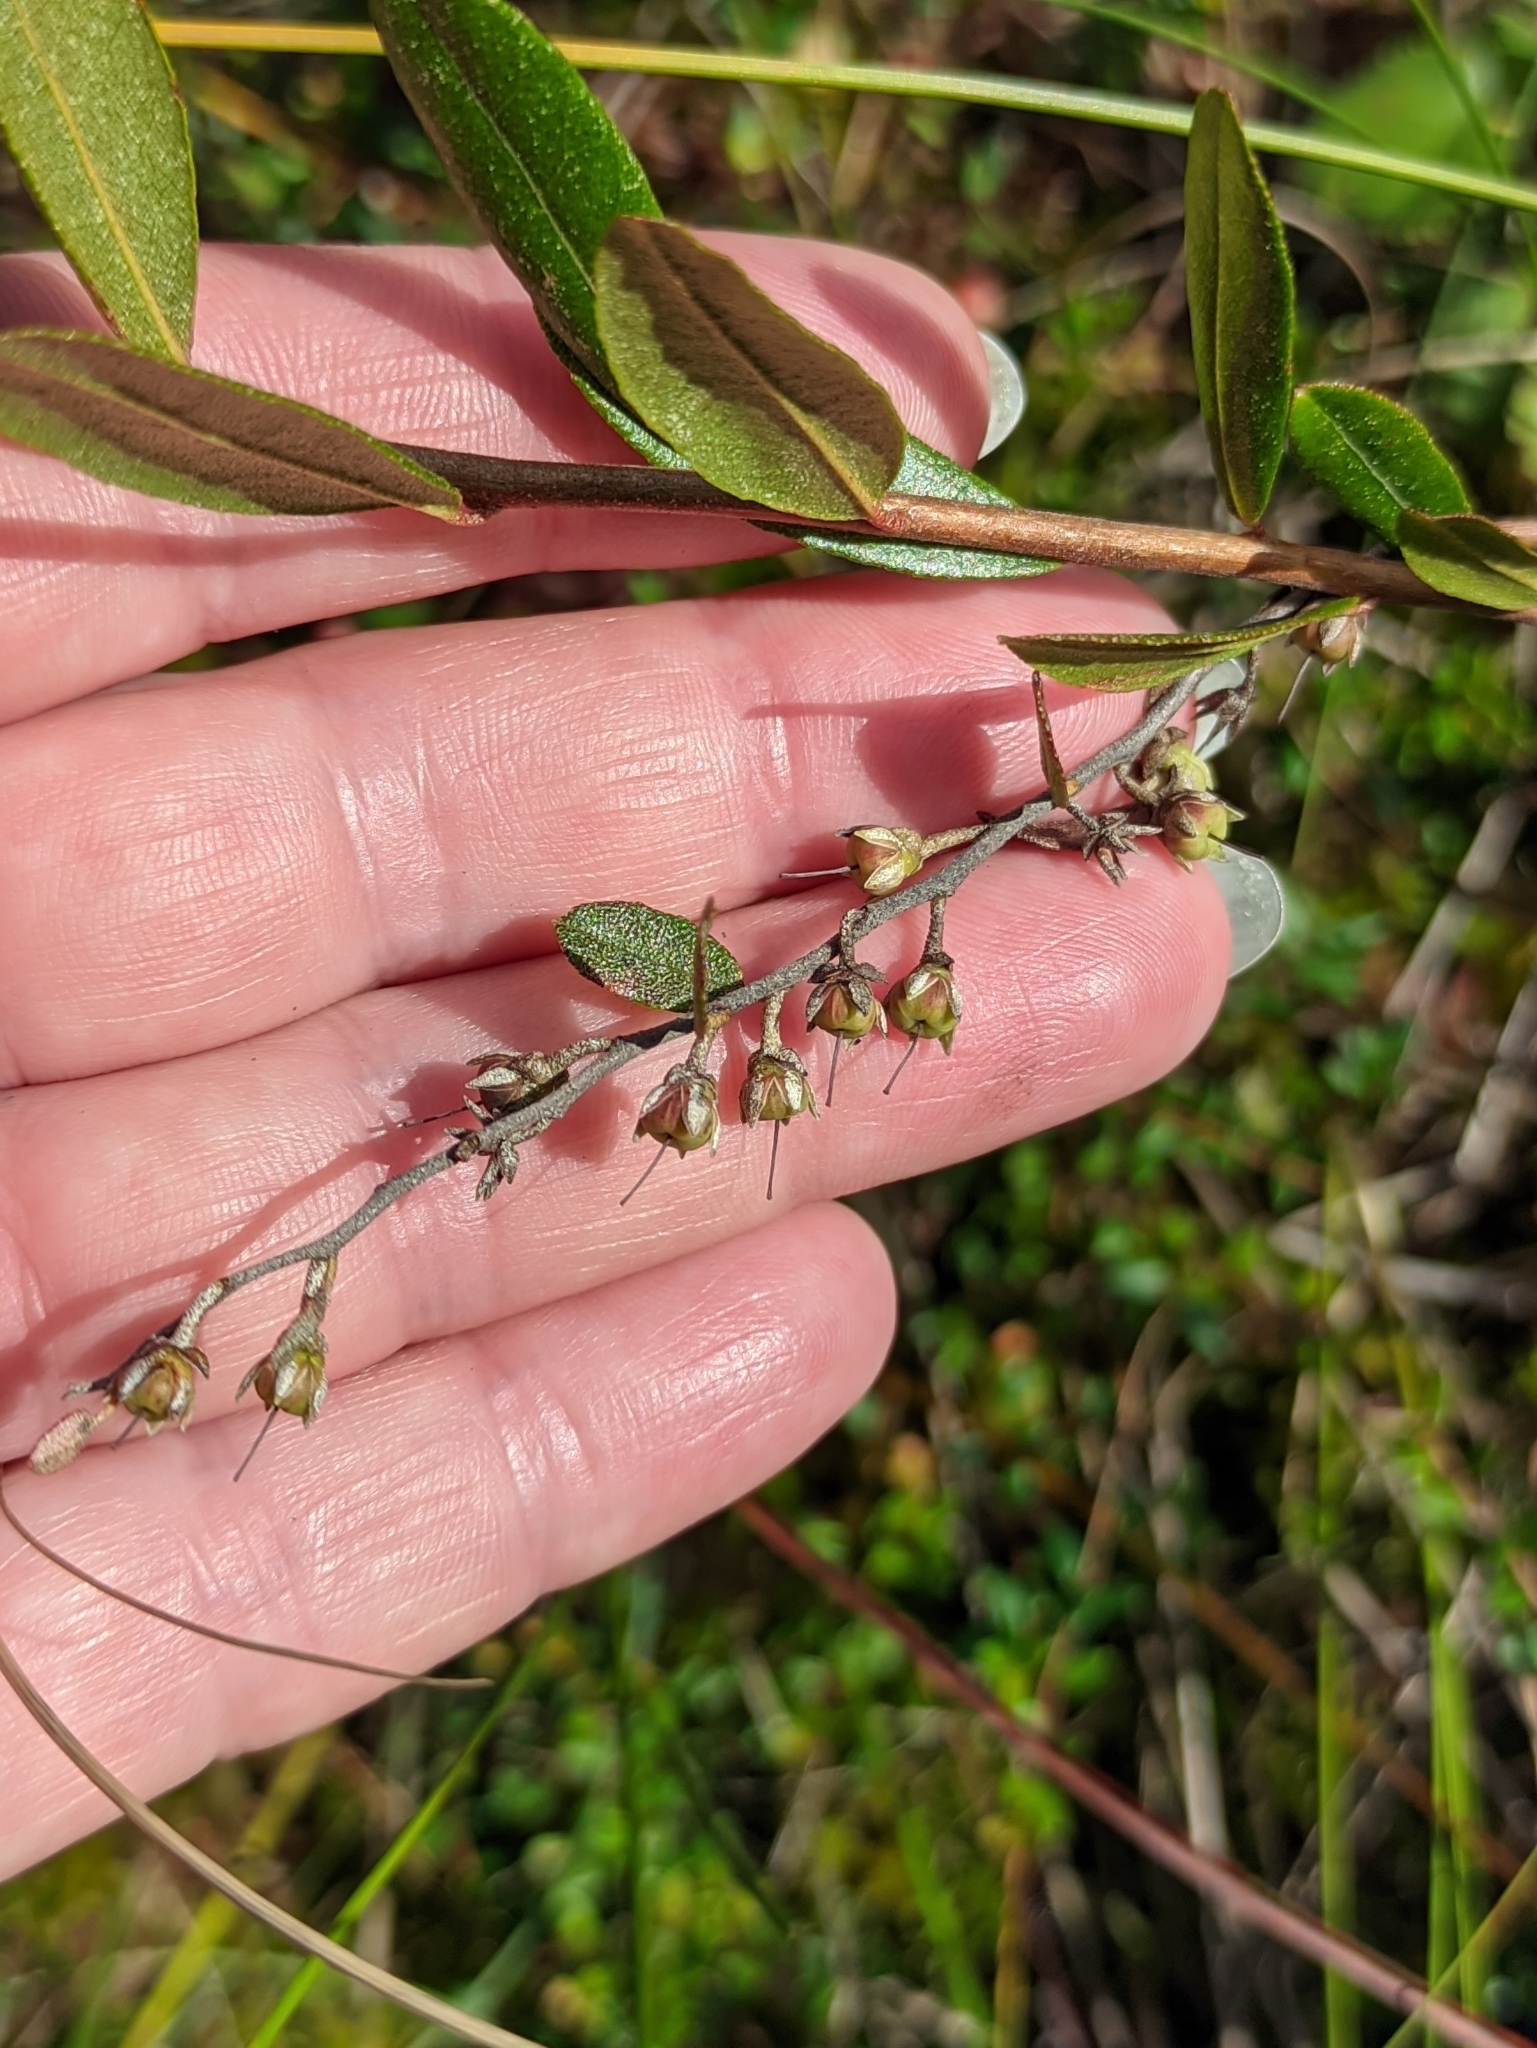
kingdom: Plantae
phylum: Tracheophyta
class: Magnoliopsida
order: Ericales
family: Ericaceae
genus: Chamaedaphne
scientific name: Chamaedaphne calyculata
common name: Leatherleaf
